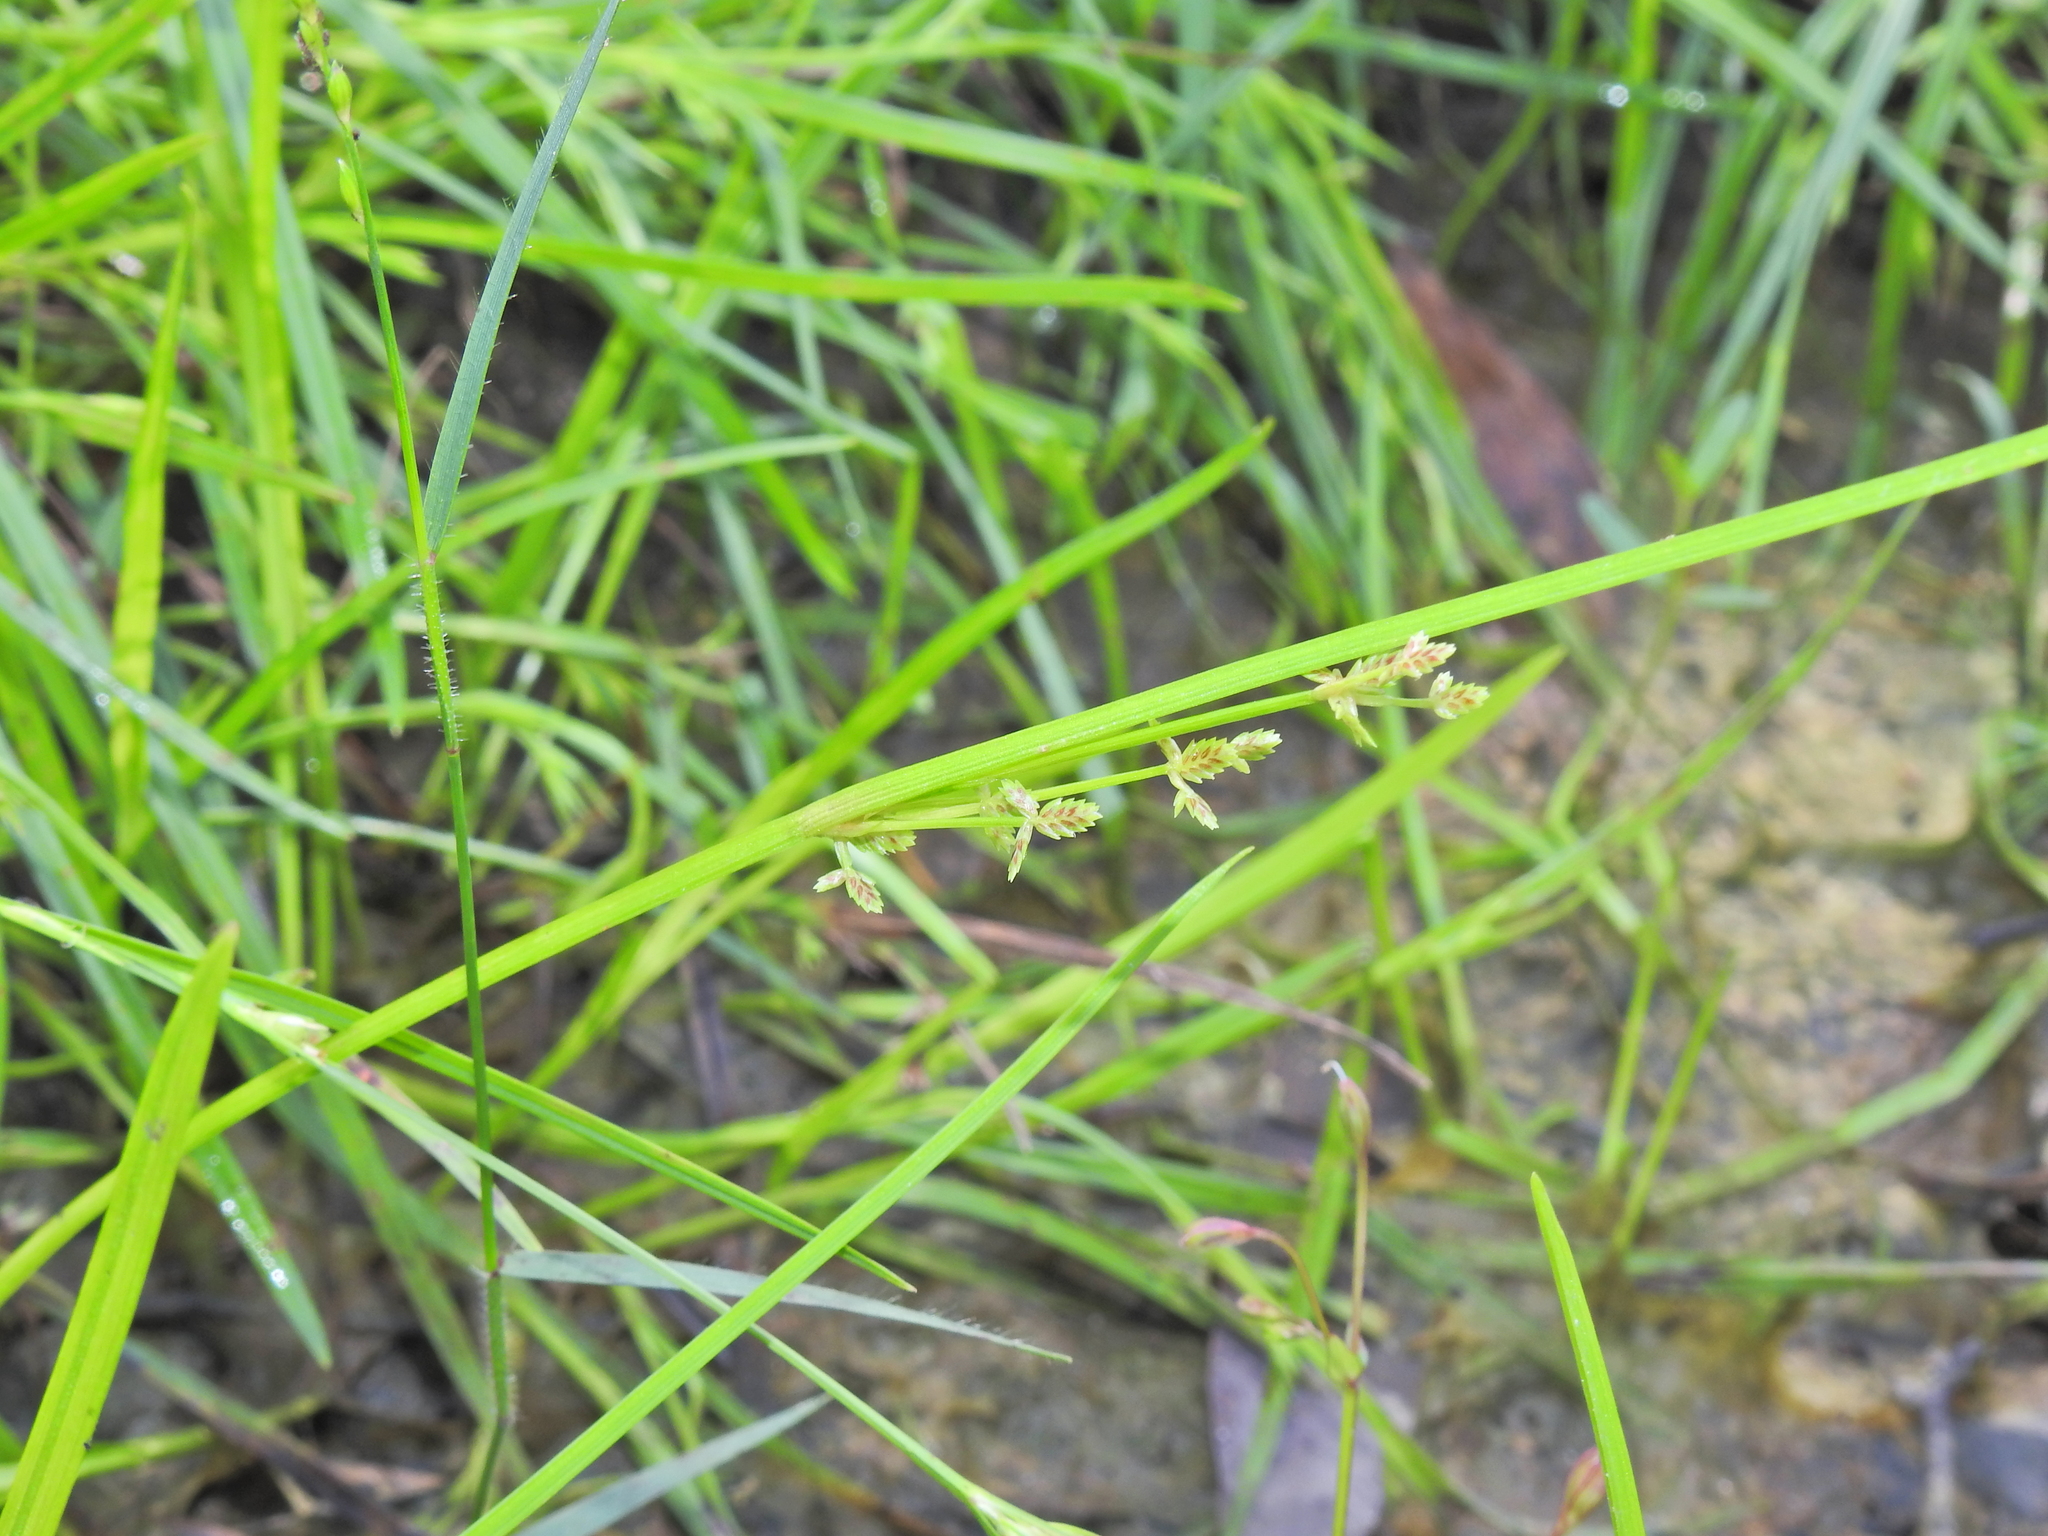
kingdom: Plantae
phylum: Tracheophyta
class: Liliopsida
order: Poales
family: Cyperaceae
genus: Cyperus
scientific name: Cyperus aquatilis
